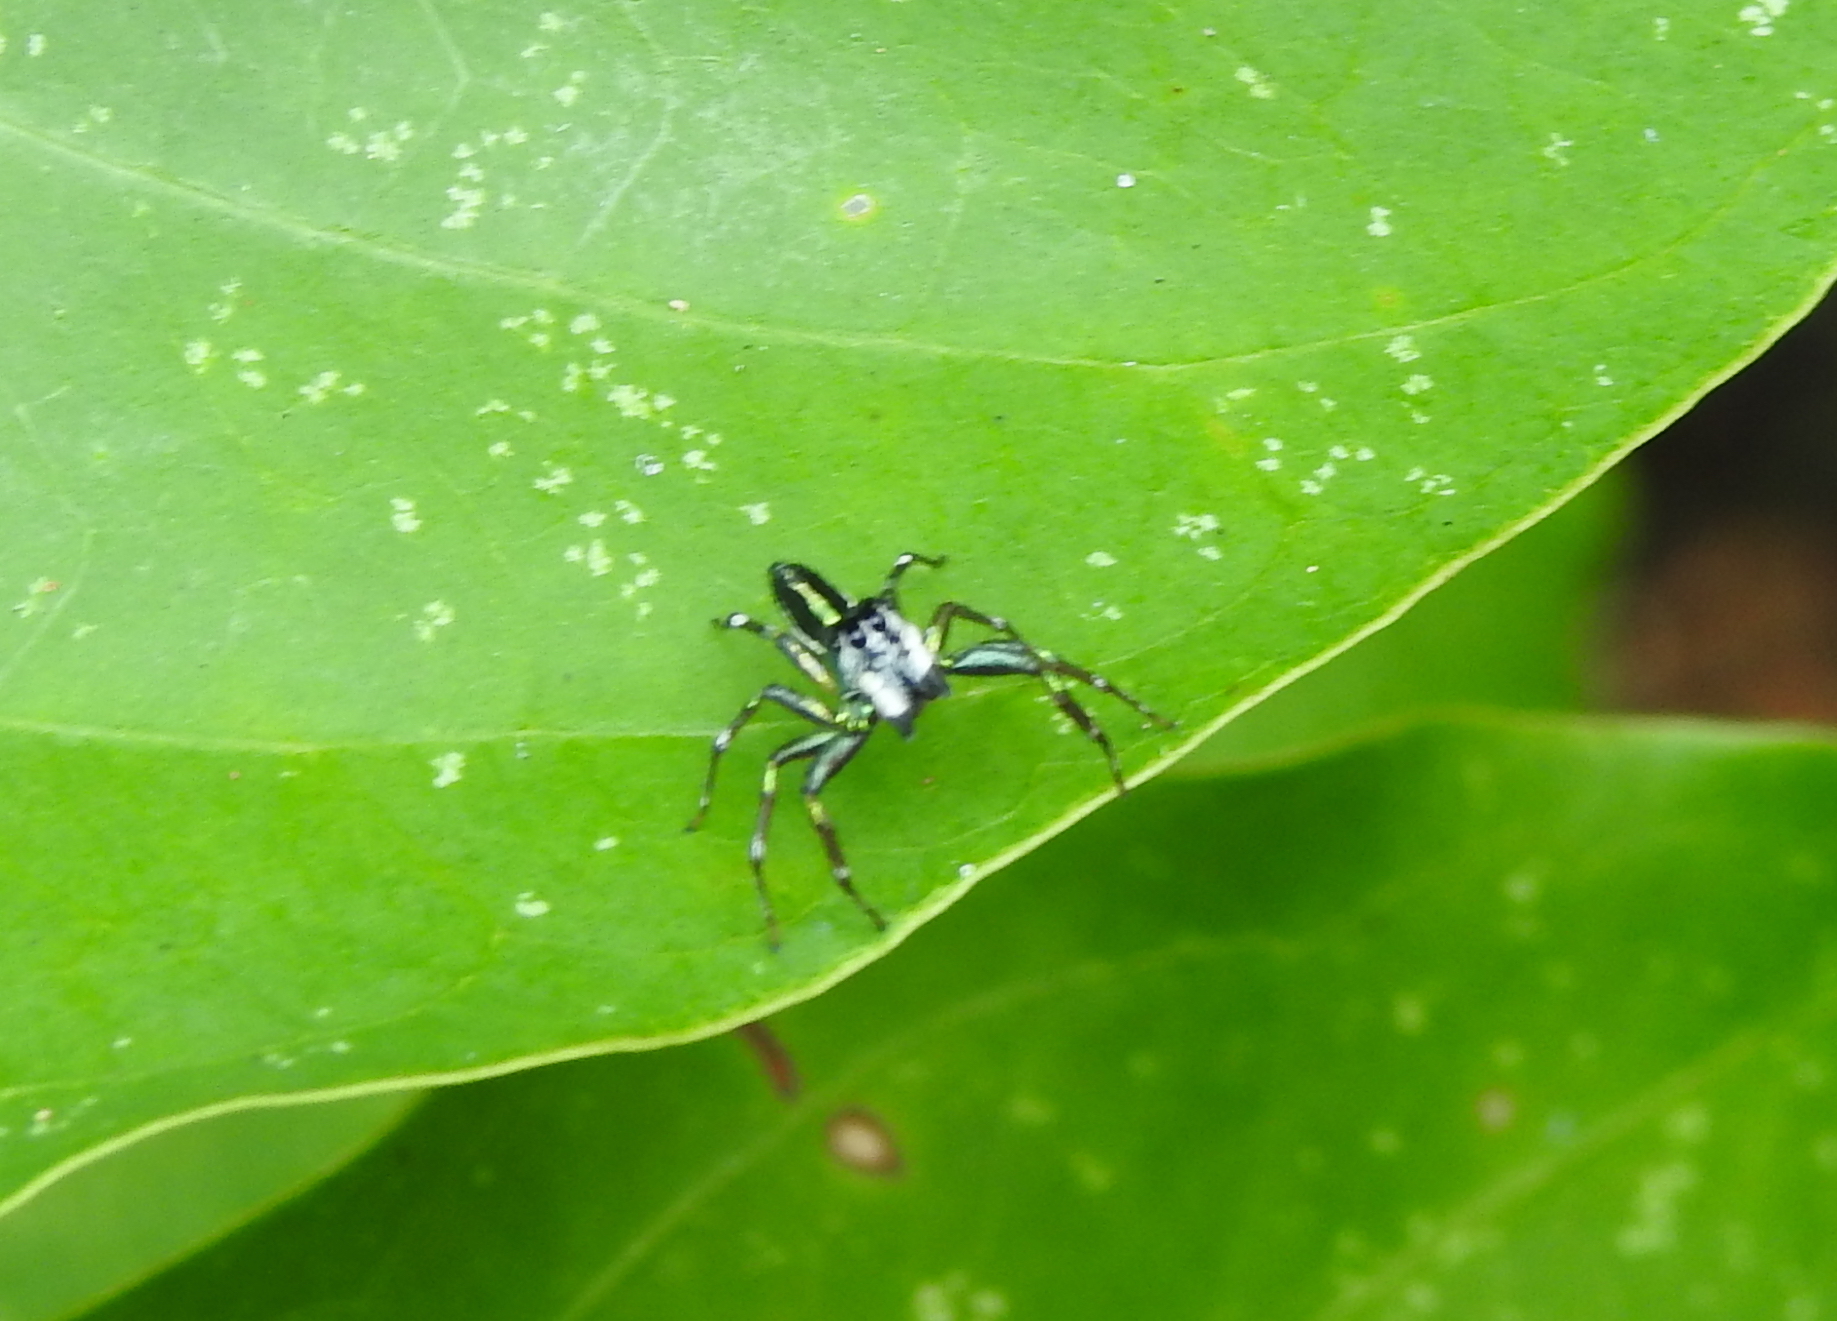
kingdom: Animalia
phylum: Arthropoda
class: Arachnida
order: Araneae
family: Salticidae
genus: Cosmophasis
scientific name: Cosmophasis thalassina
